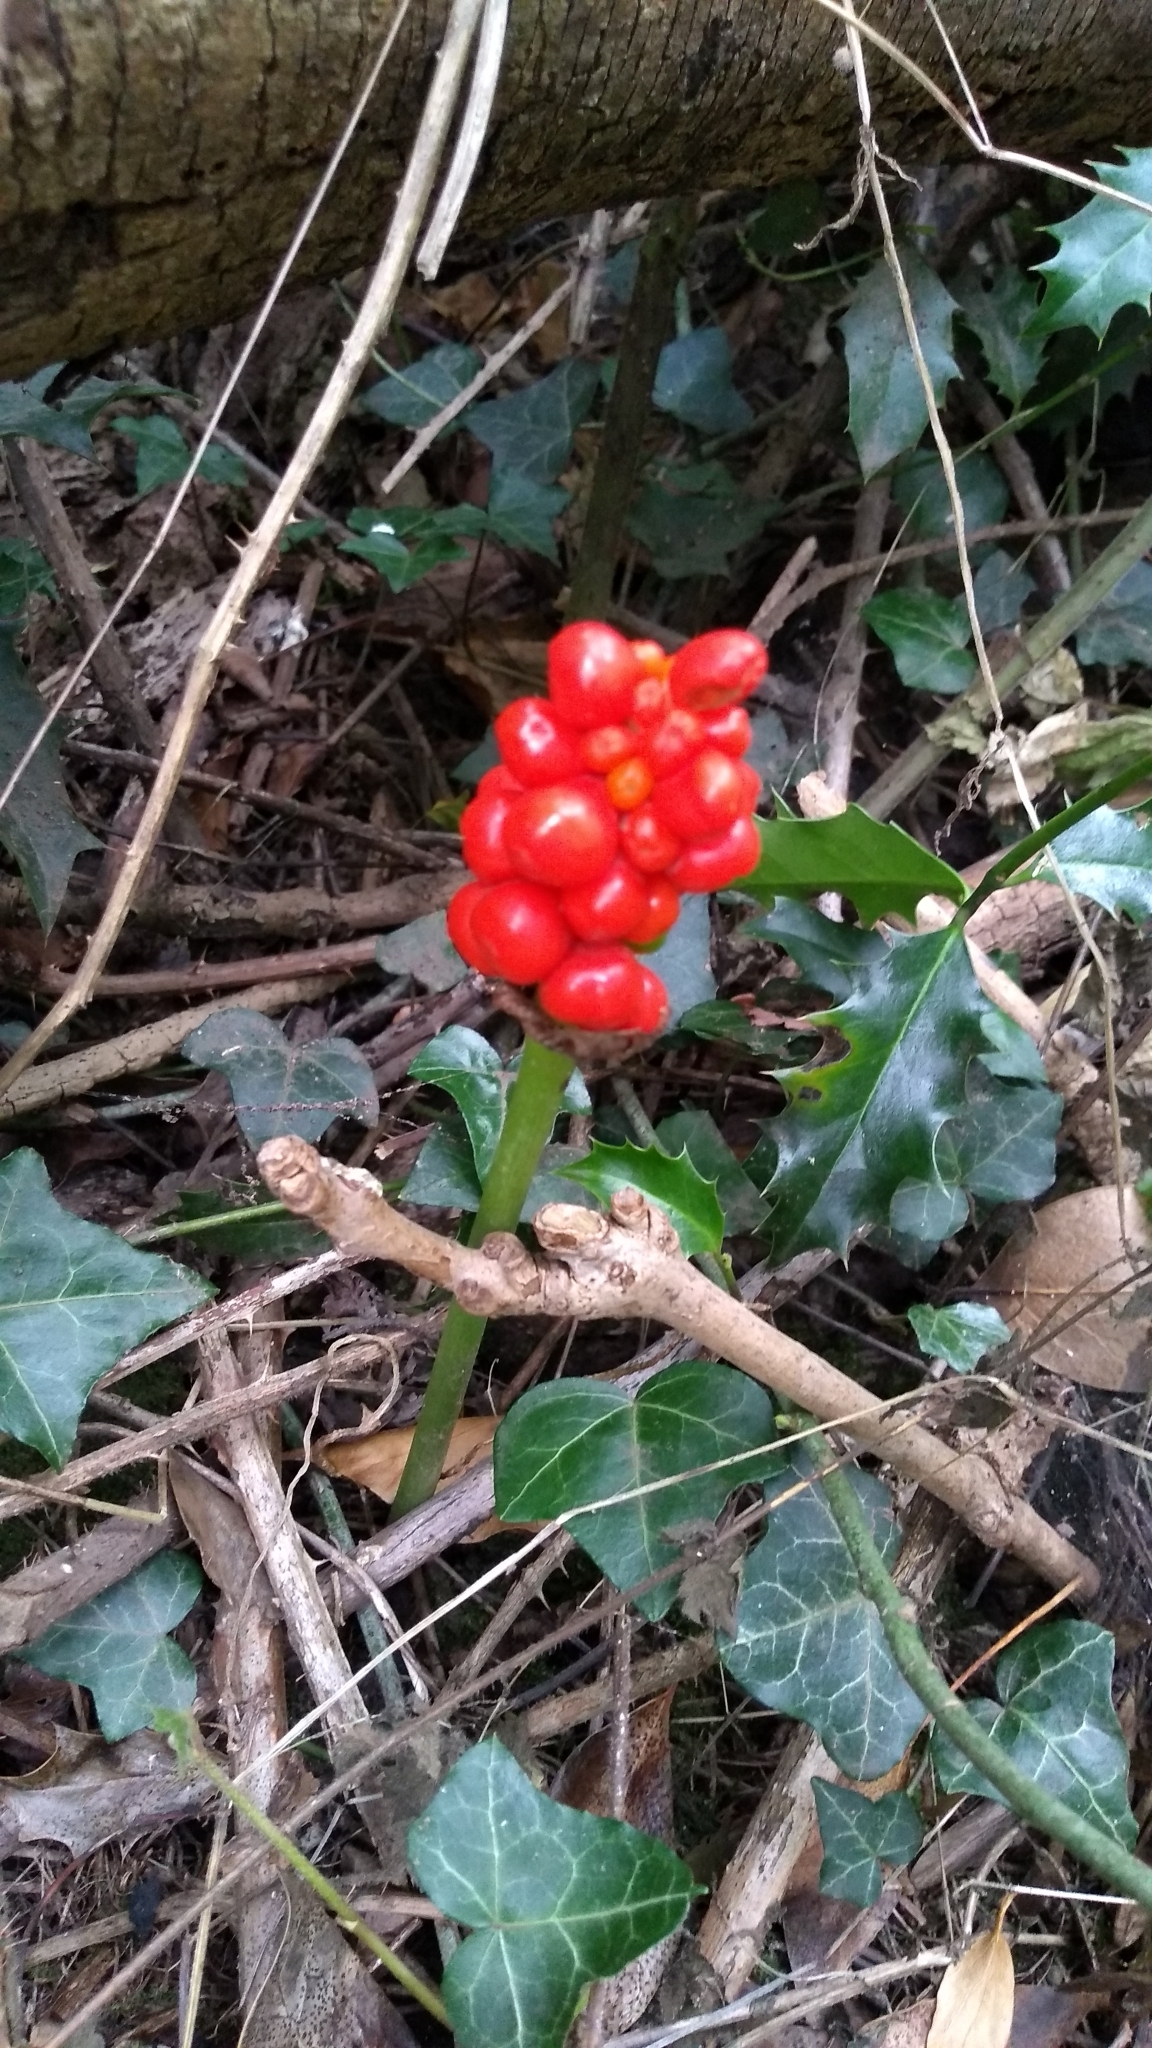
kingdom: Plantae
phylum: Tracheophyta
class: Liliopsida
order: Alismatales
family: Araceae
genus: Arum
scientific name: Arum maculatum
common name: Lords-and-ladies
